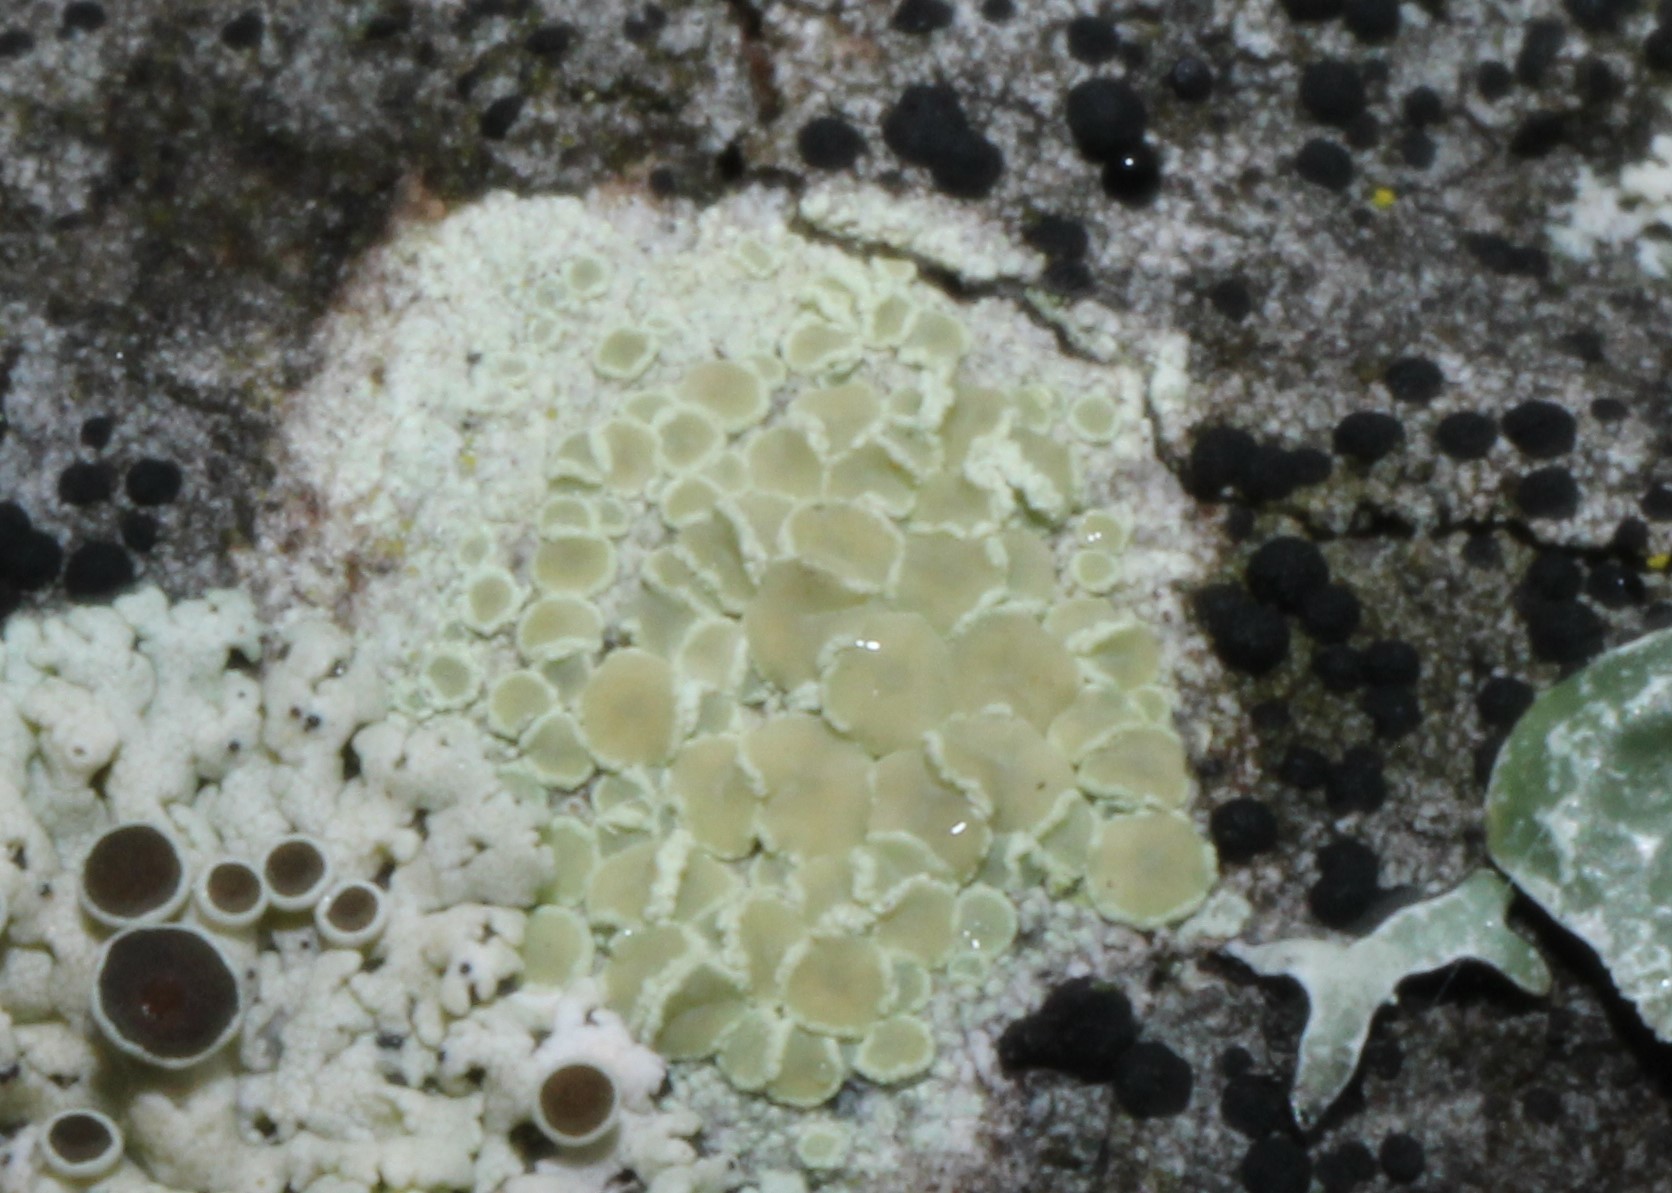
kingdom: Fungi
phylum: Ascomycota
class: Lecanoromycetes
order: Lecanorales
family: Lecanoraceae
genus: Lecanora
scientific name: Lecanora strobilina
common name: Mealy rim-lichen
